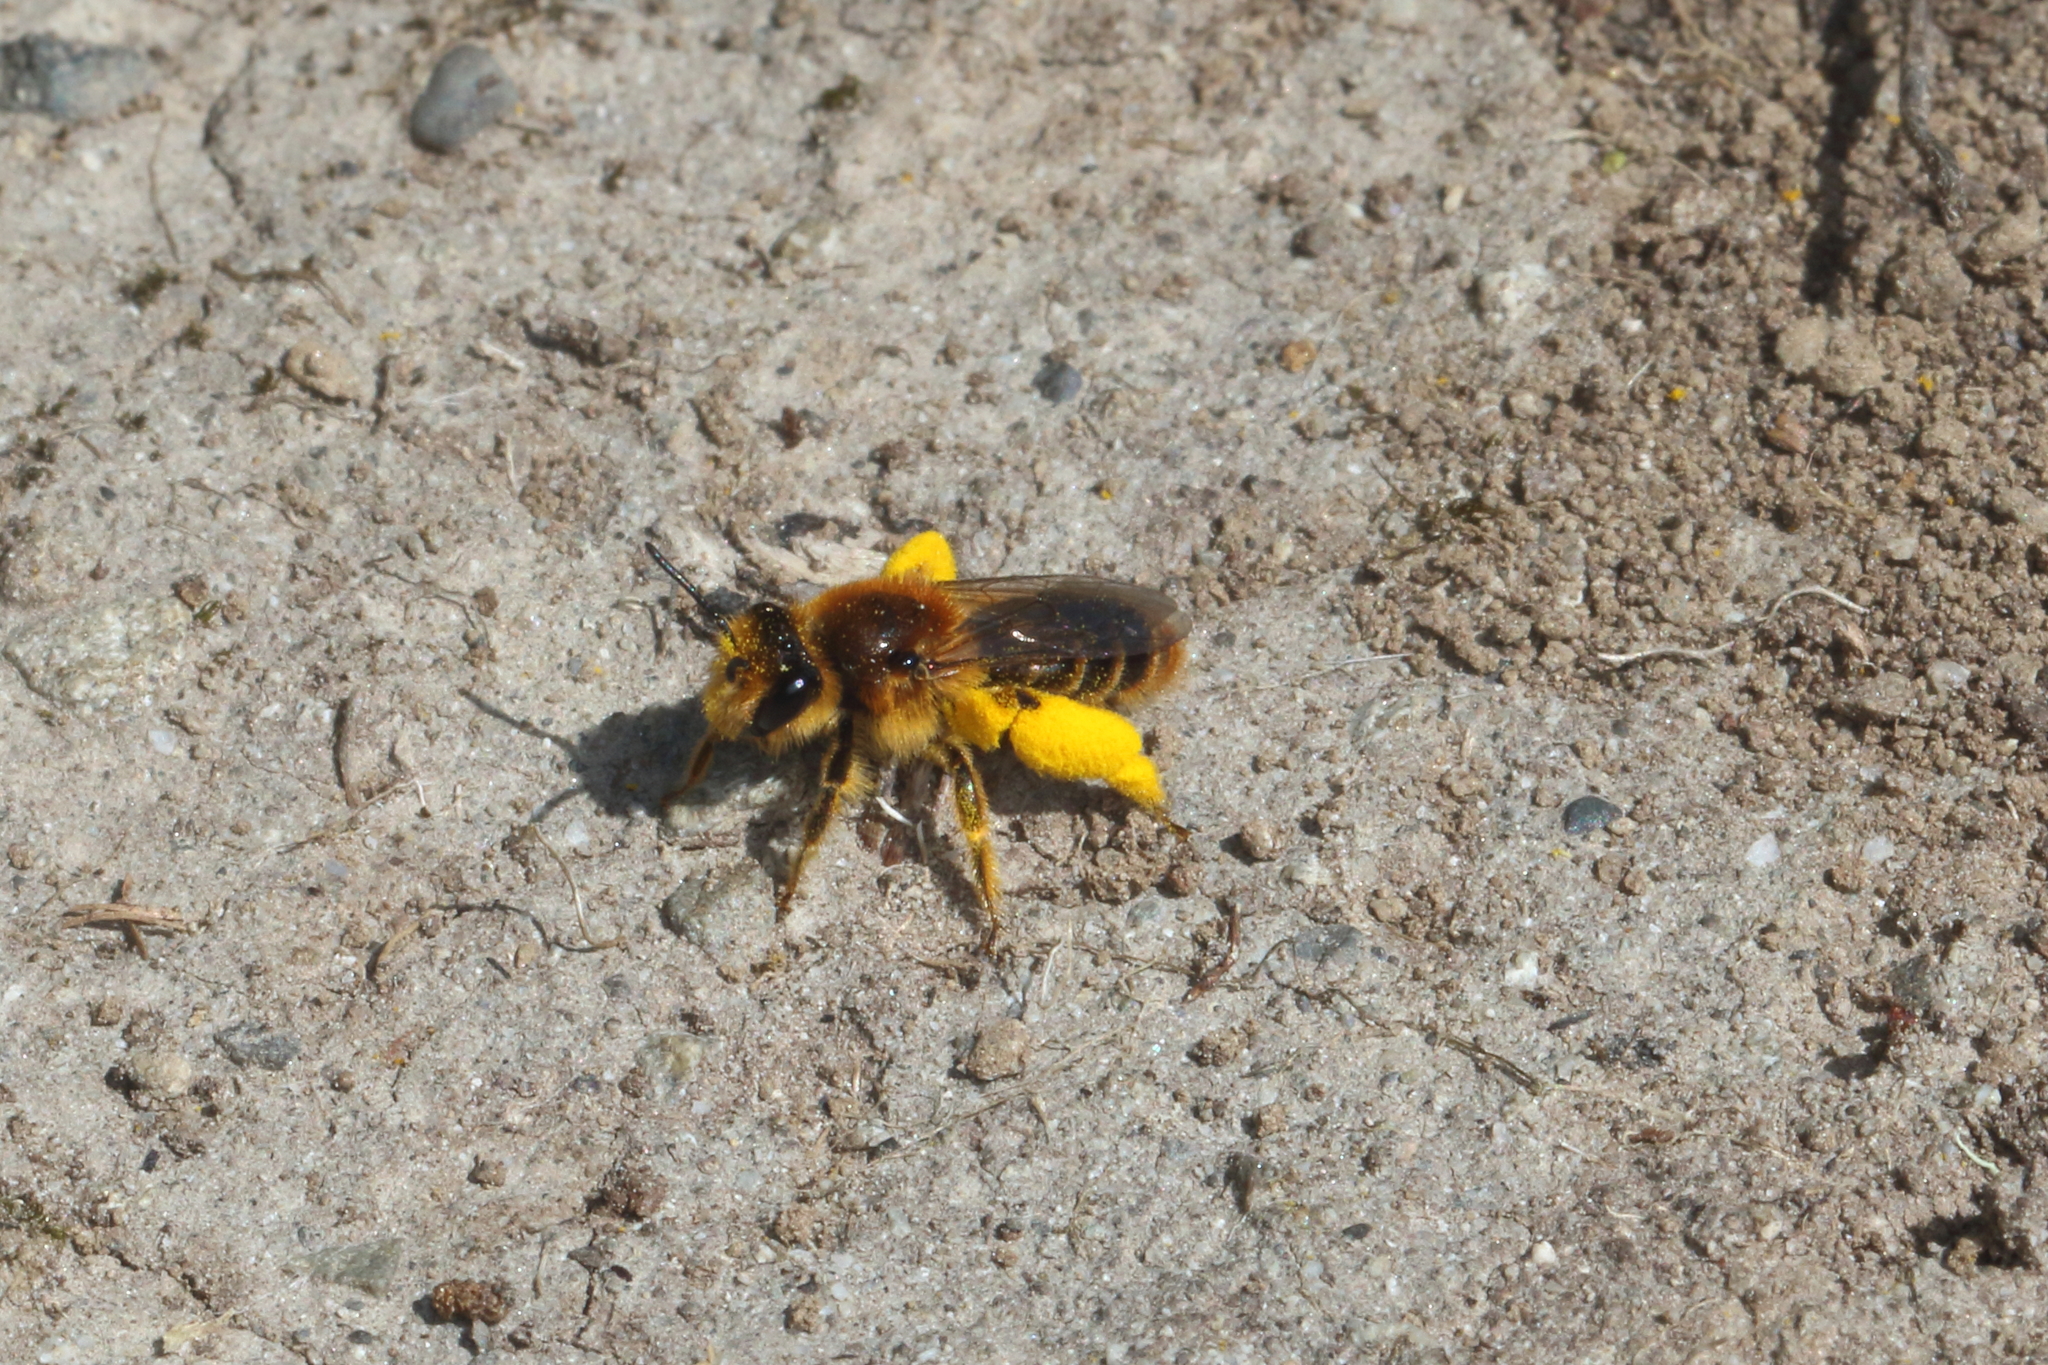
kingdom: Animalia
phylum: Arthropoda
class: Insecta
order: Hymenoptera
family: Colletidae
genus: Leioproctus
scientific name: Leioproctus fulvescens
